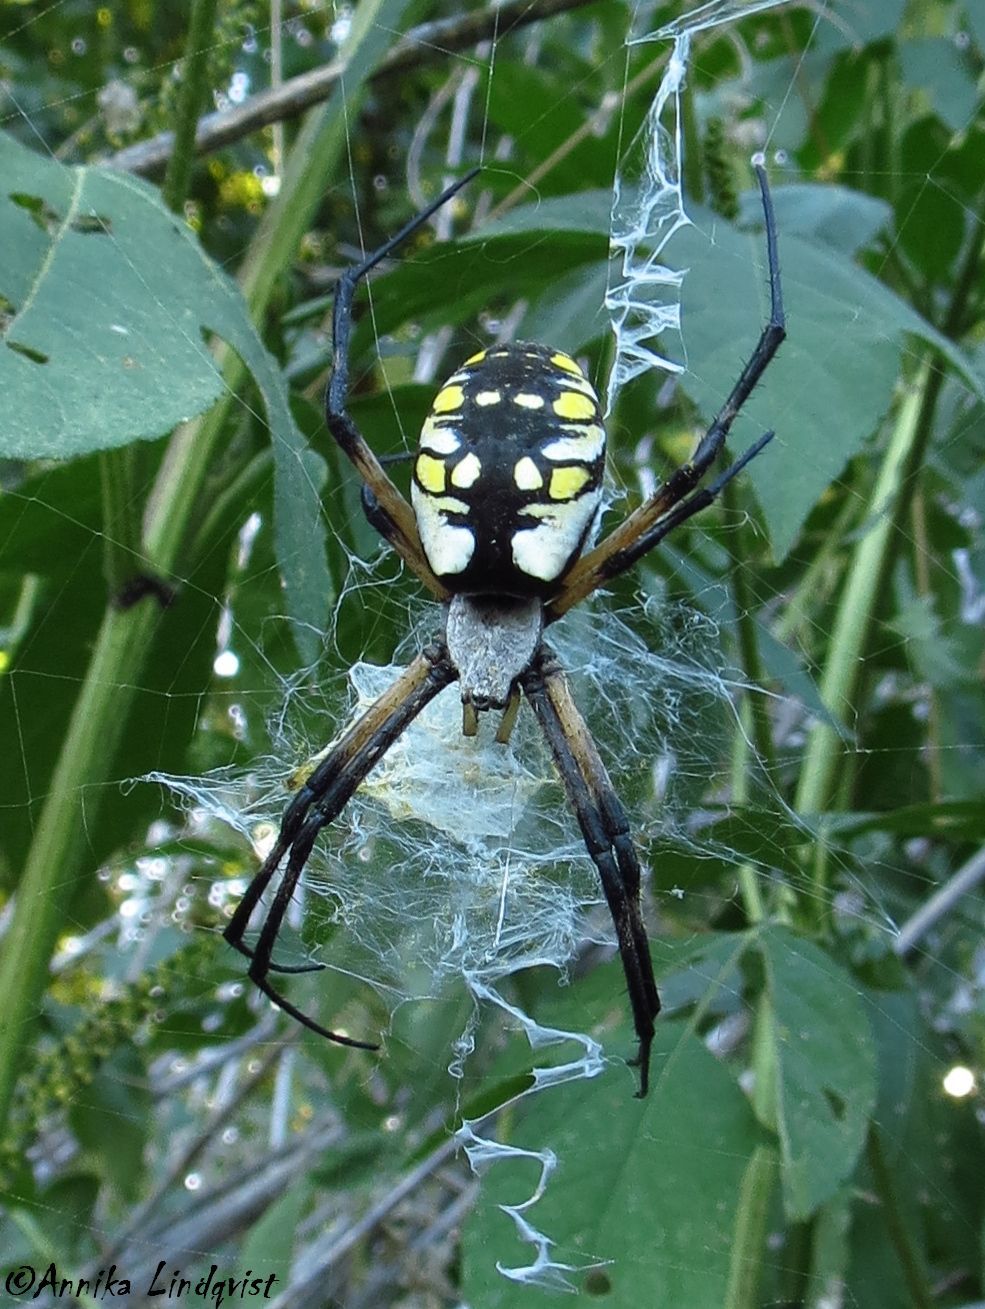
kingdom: Animalia
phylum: Arthropoda
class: Arachnida
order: Araneae
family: Araneidae
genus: Argiope
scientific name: Argiope aurantia
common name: Orb weavers
